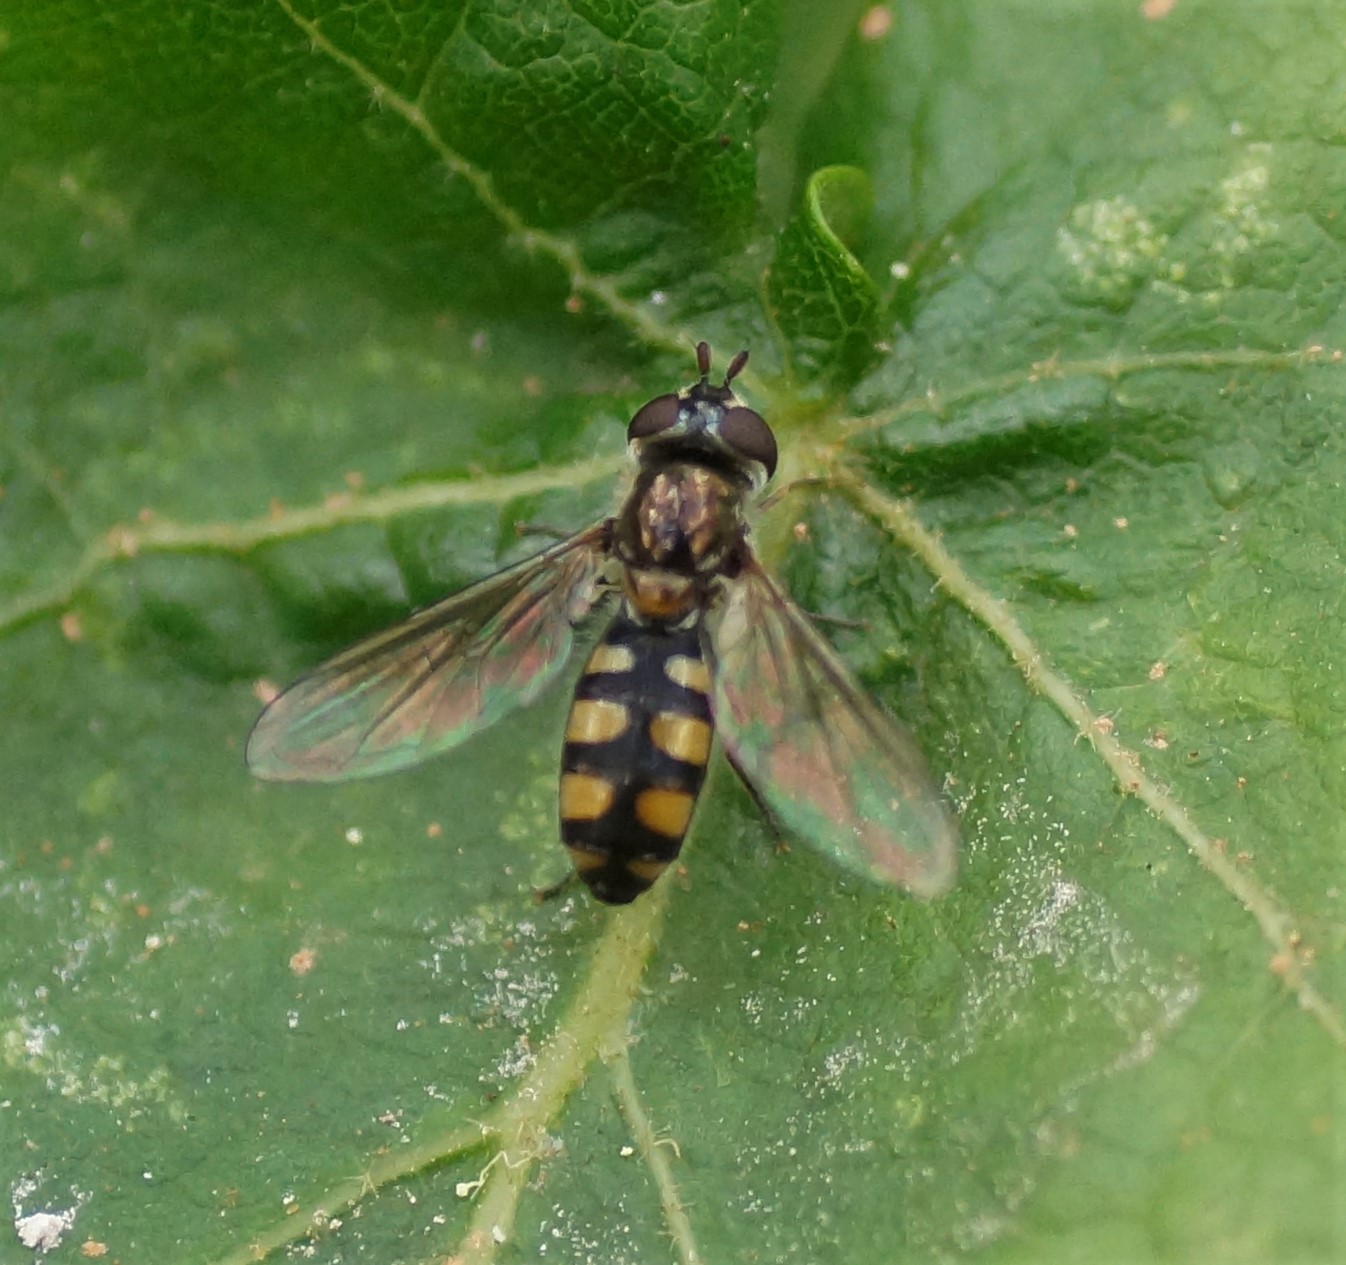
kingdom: Animalia
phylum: Arthropoda
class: Insecta
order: Diptera
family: Syrphidae
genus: Melangyna
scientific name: Melangyna viridiceps
